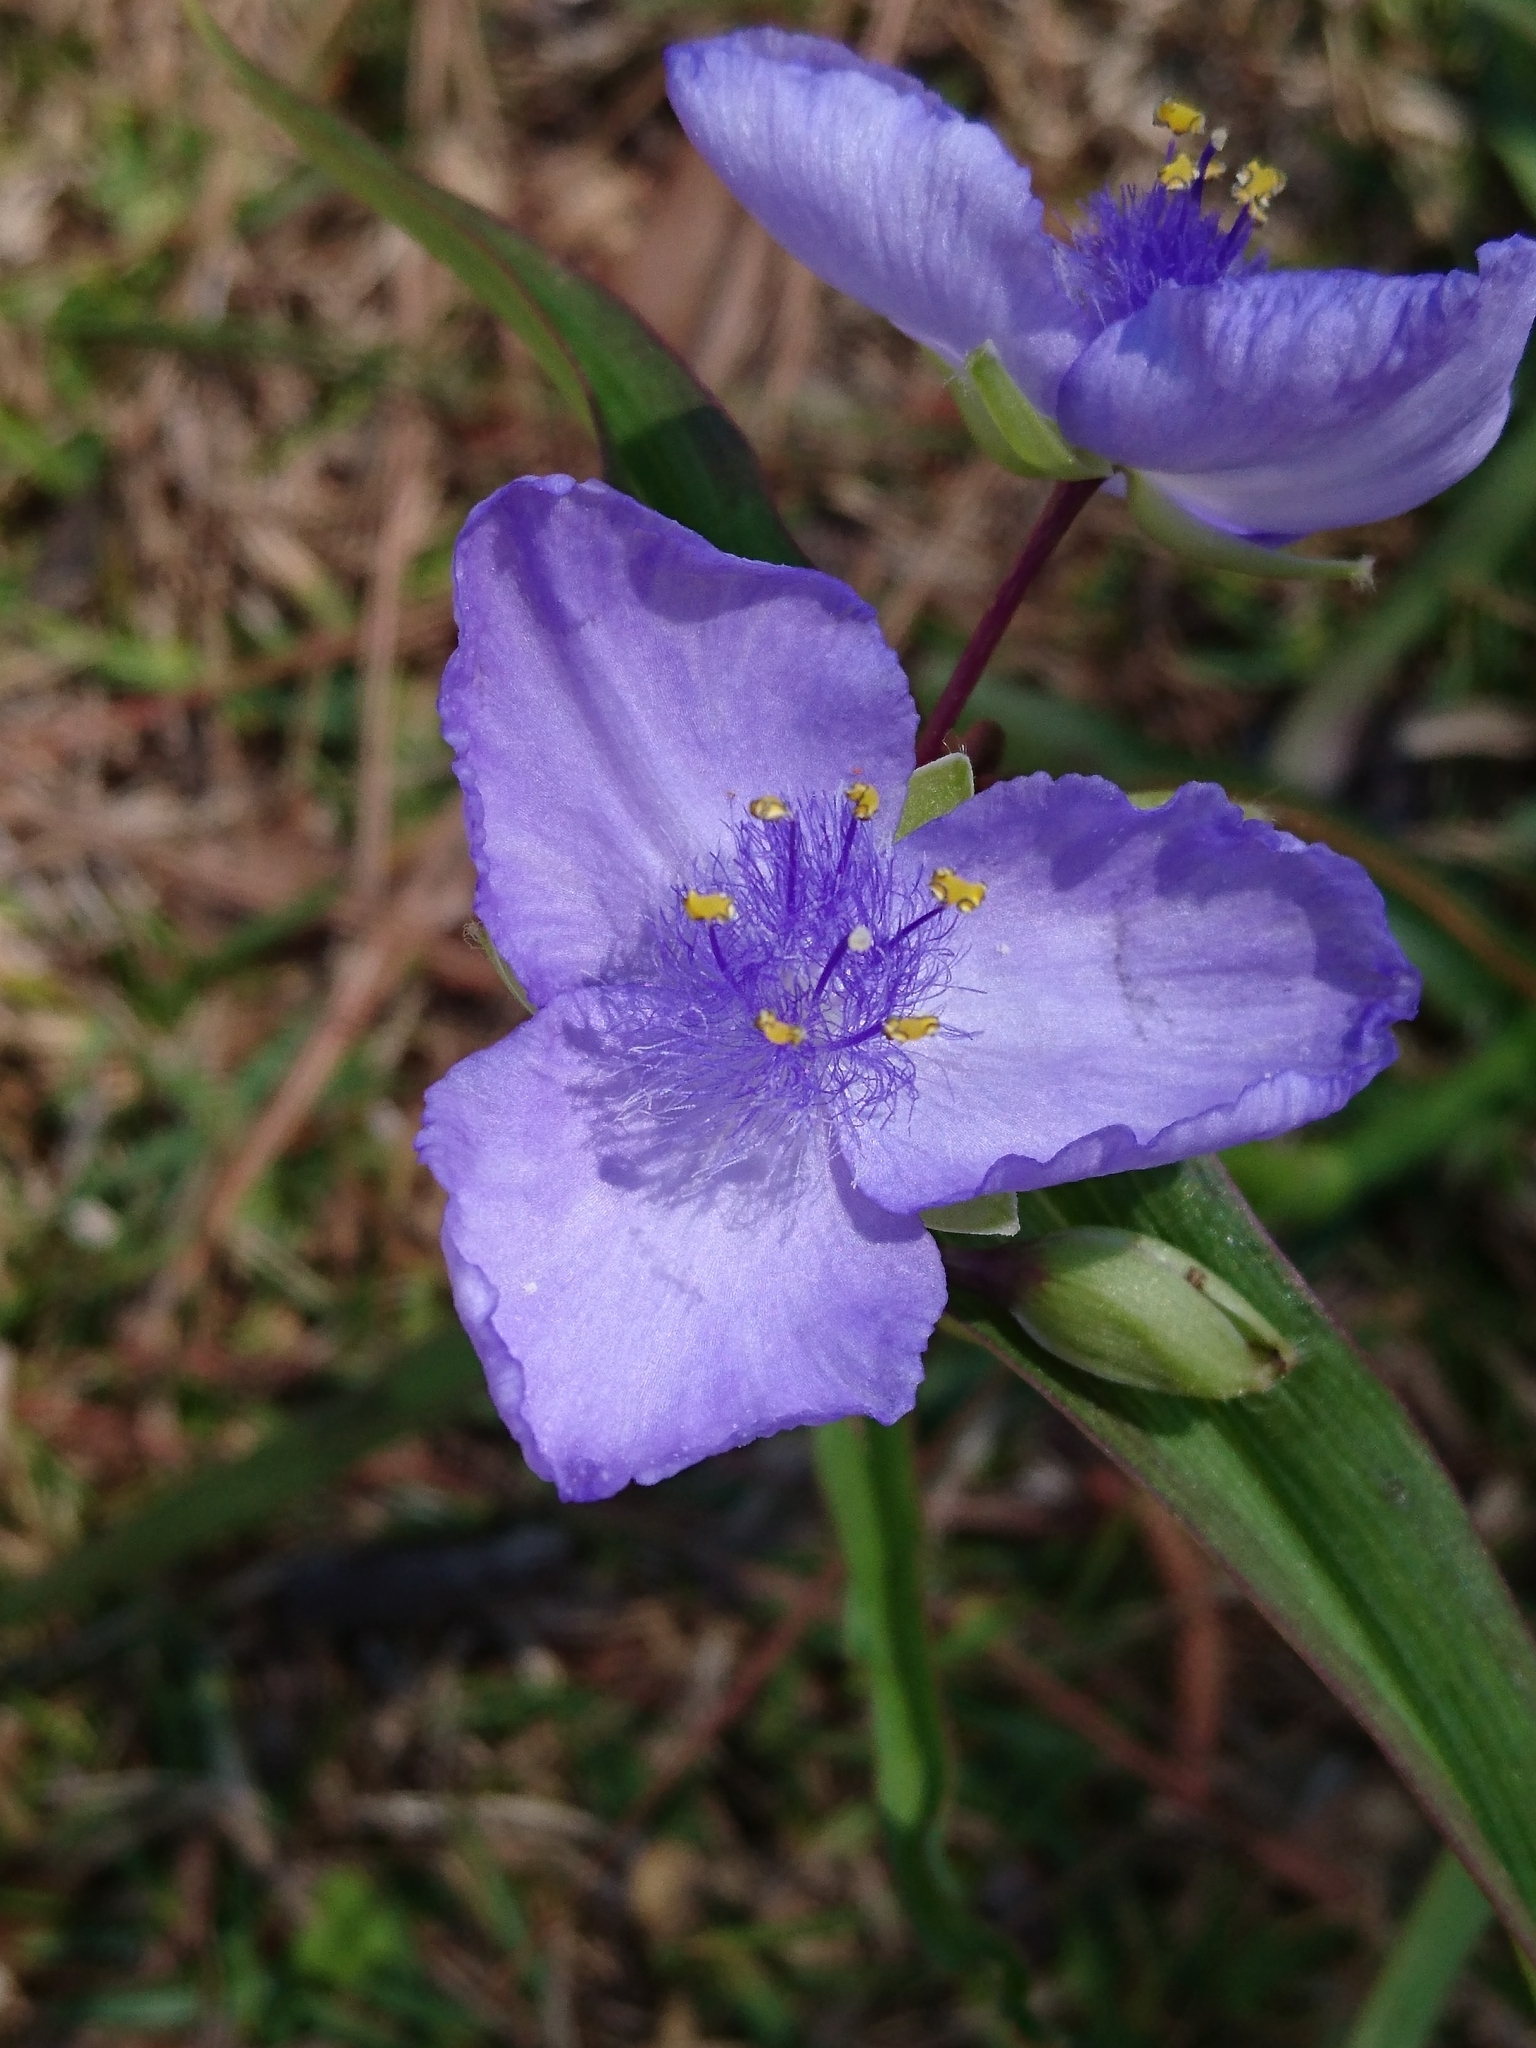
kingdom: Plantae
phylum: Tracheophyta
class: Liliopsida
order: Commelinales
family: Commelinaceae
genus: Tradescantia
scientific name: Tradescantia ohiensis
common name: Ohio spiderwort
